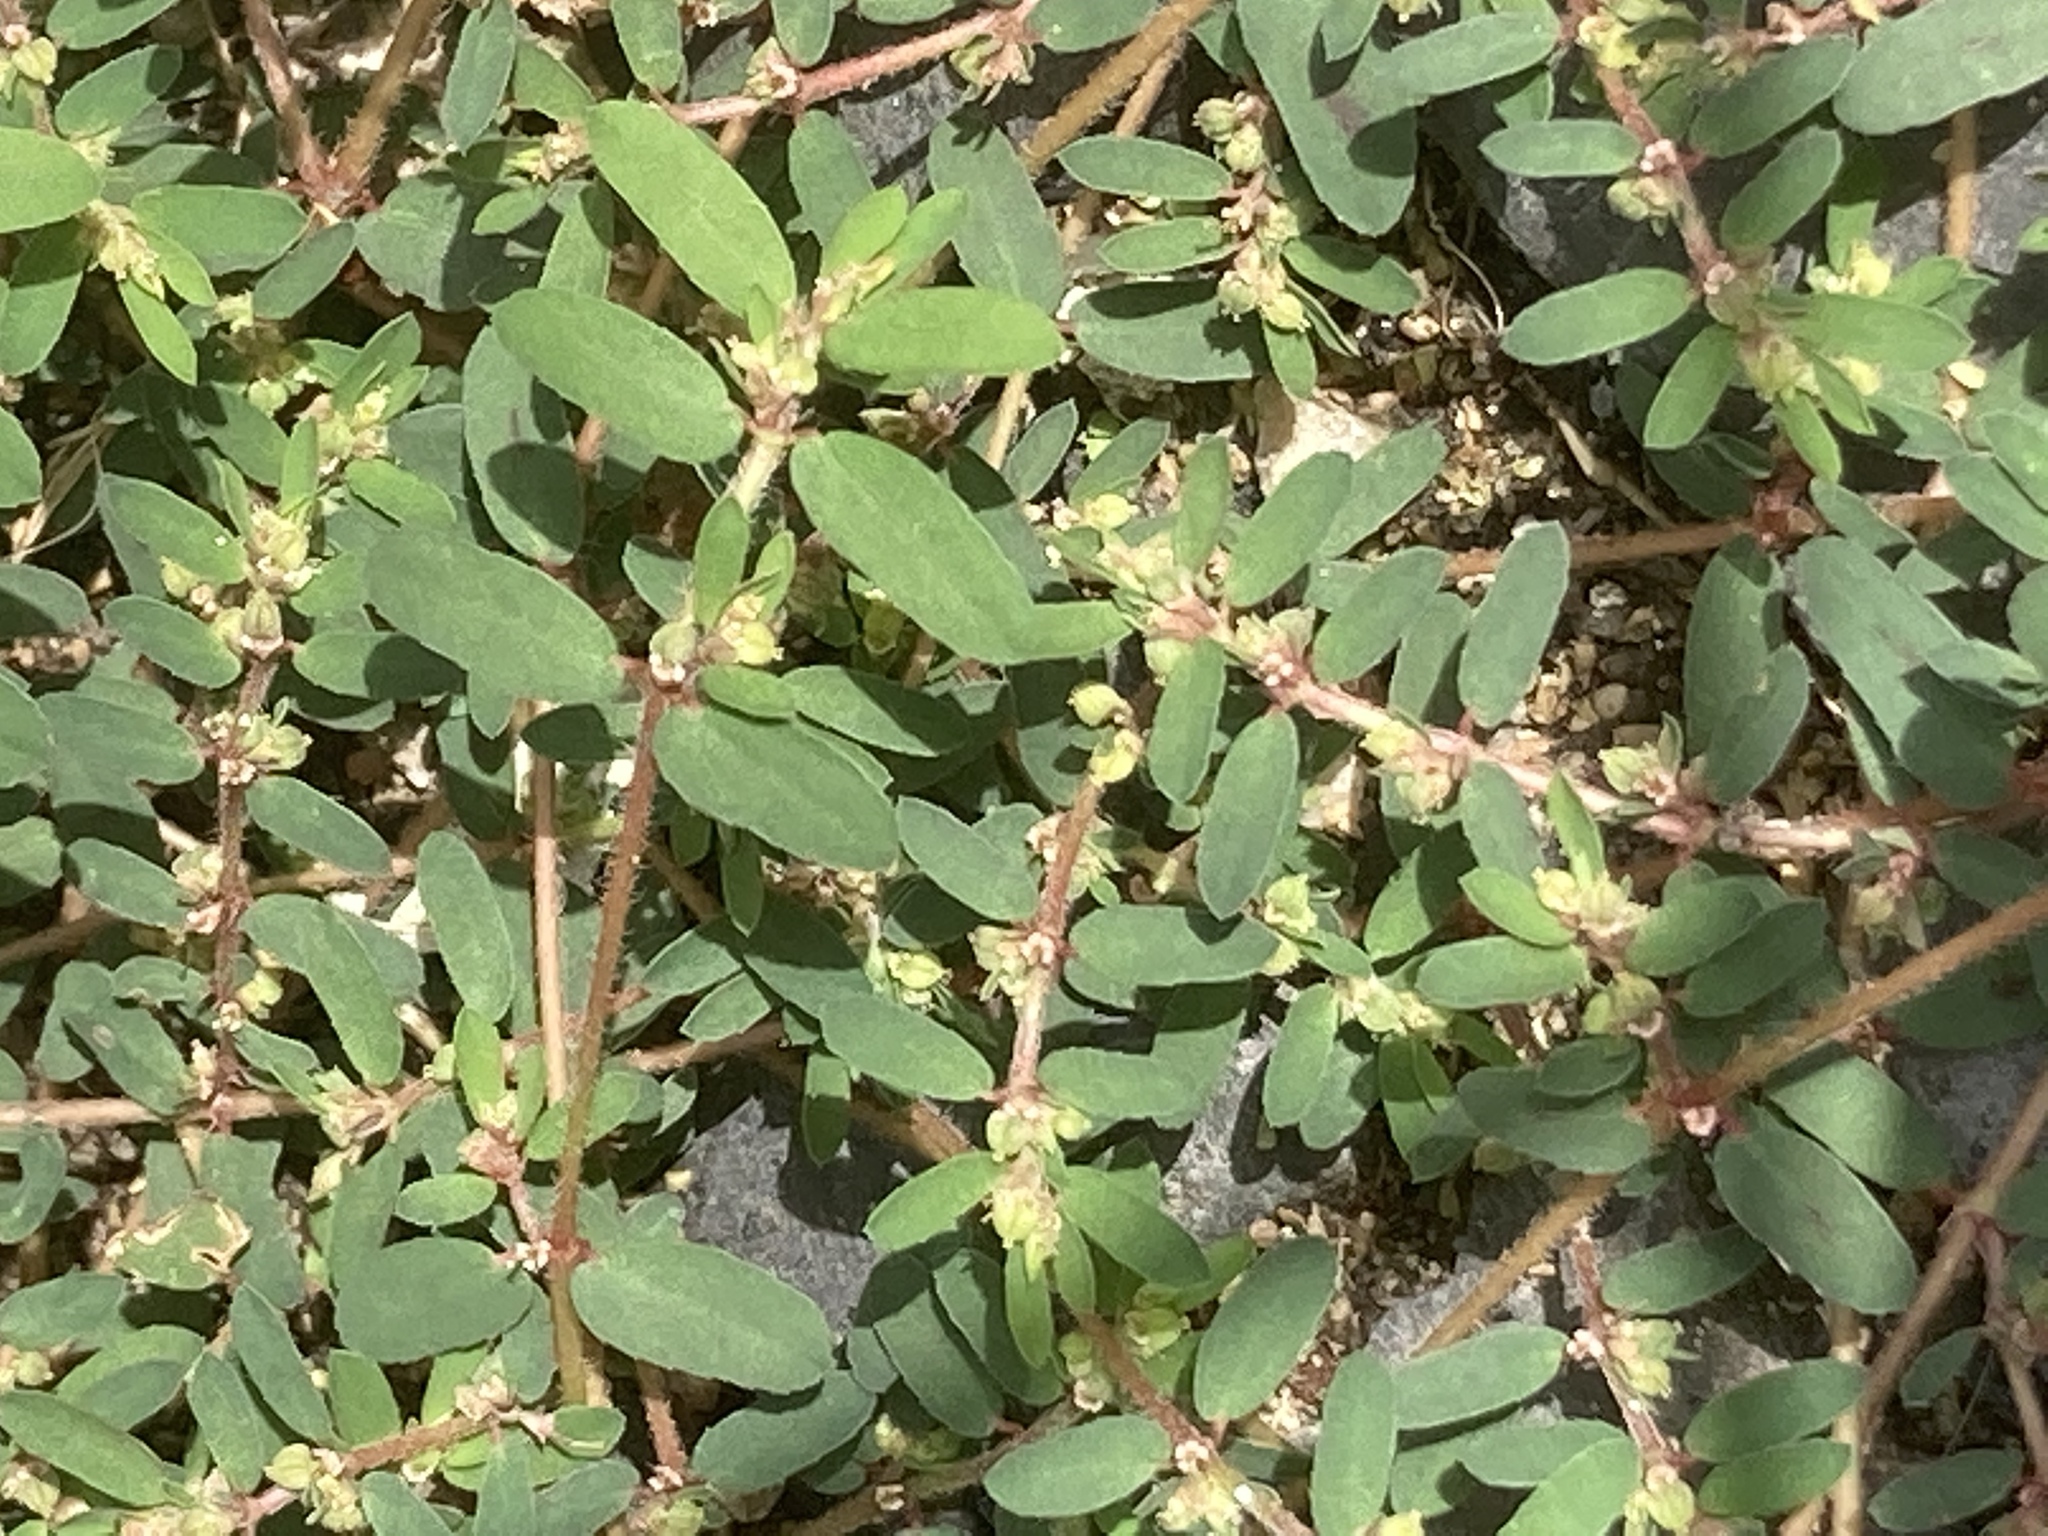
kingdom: Plantae
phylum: Tracheophyta
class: Magnoliopsida
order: Malpighiales
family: Euphorbiaceae
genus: Euphorbia
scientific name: Euphorbia maculata
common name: Spotted spurge
